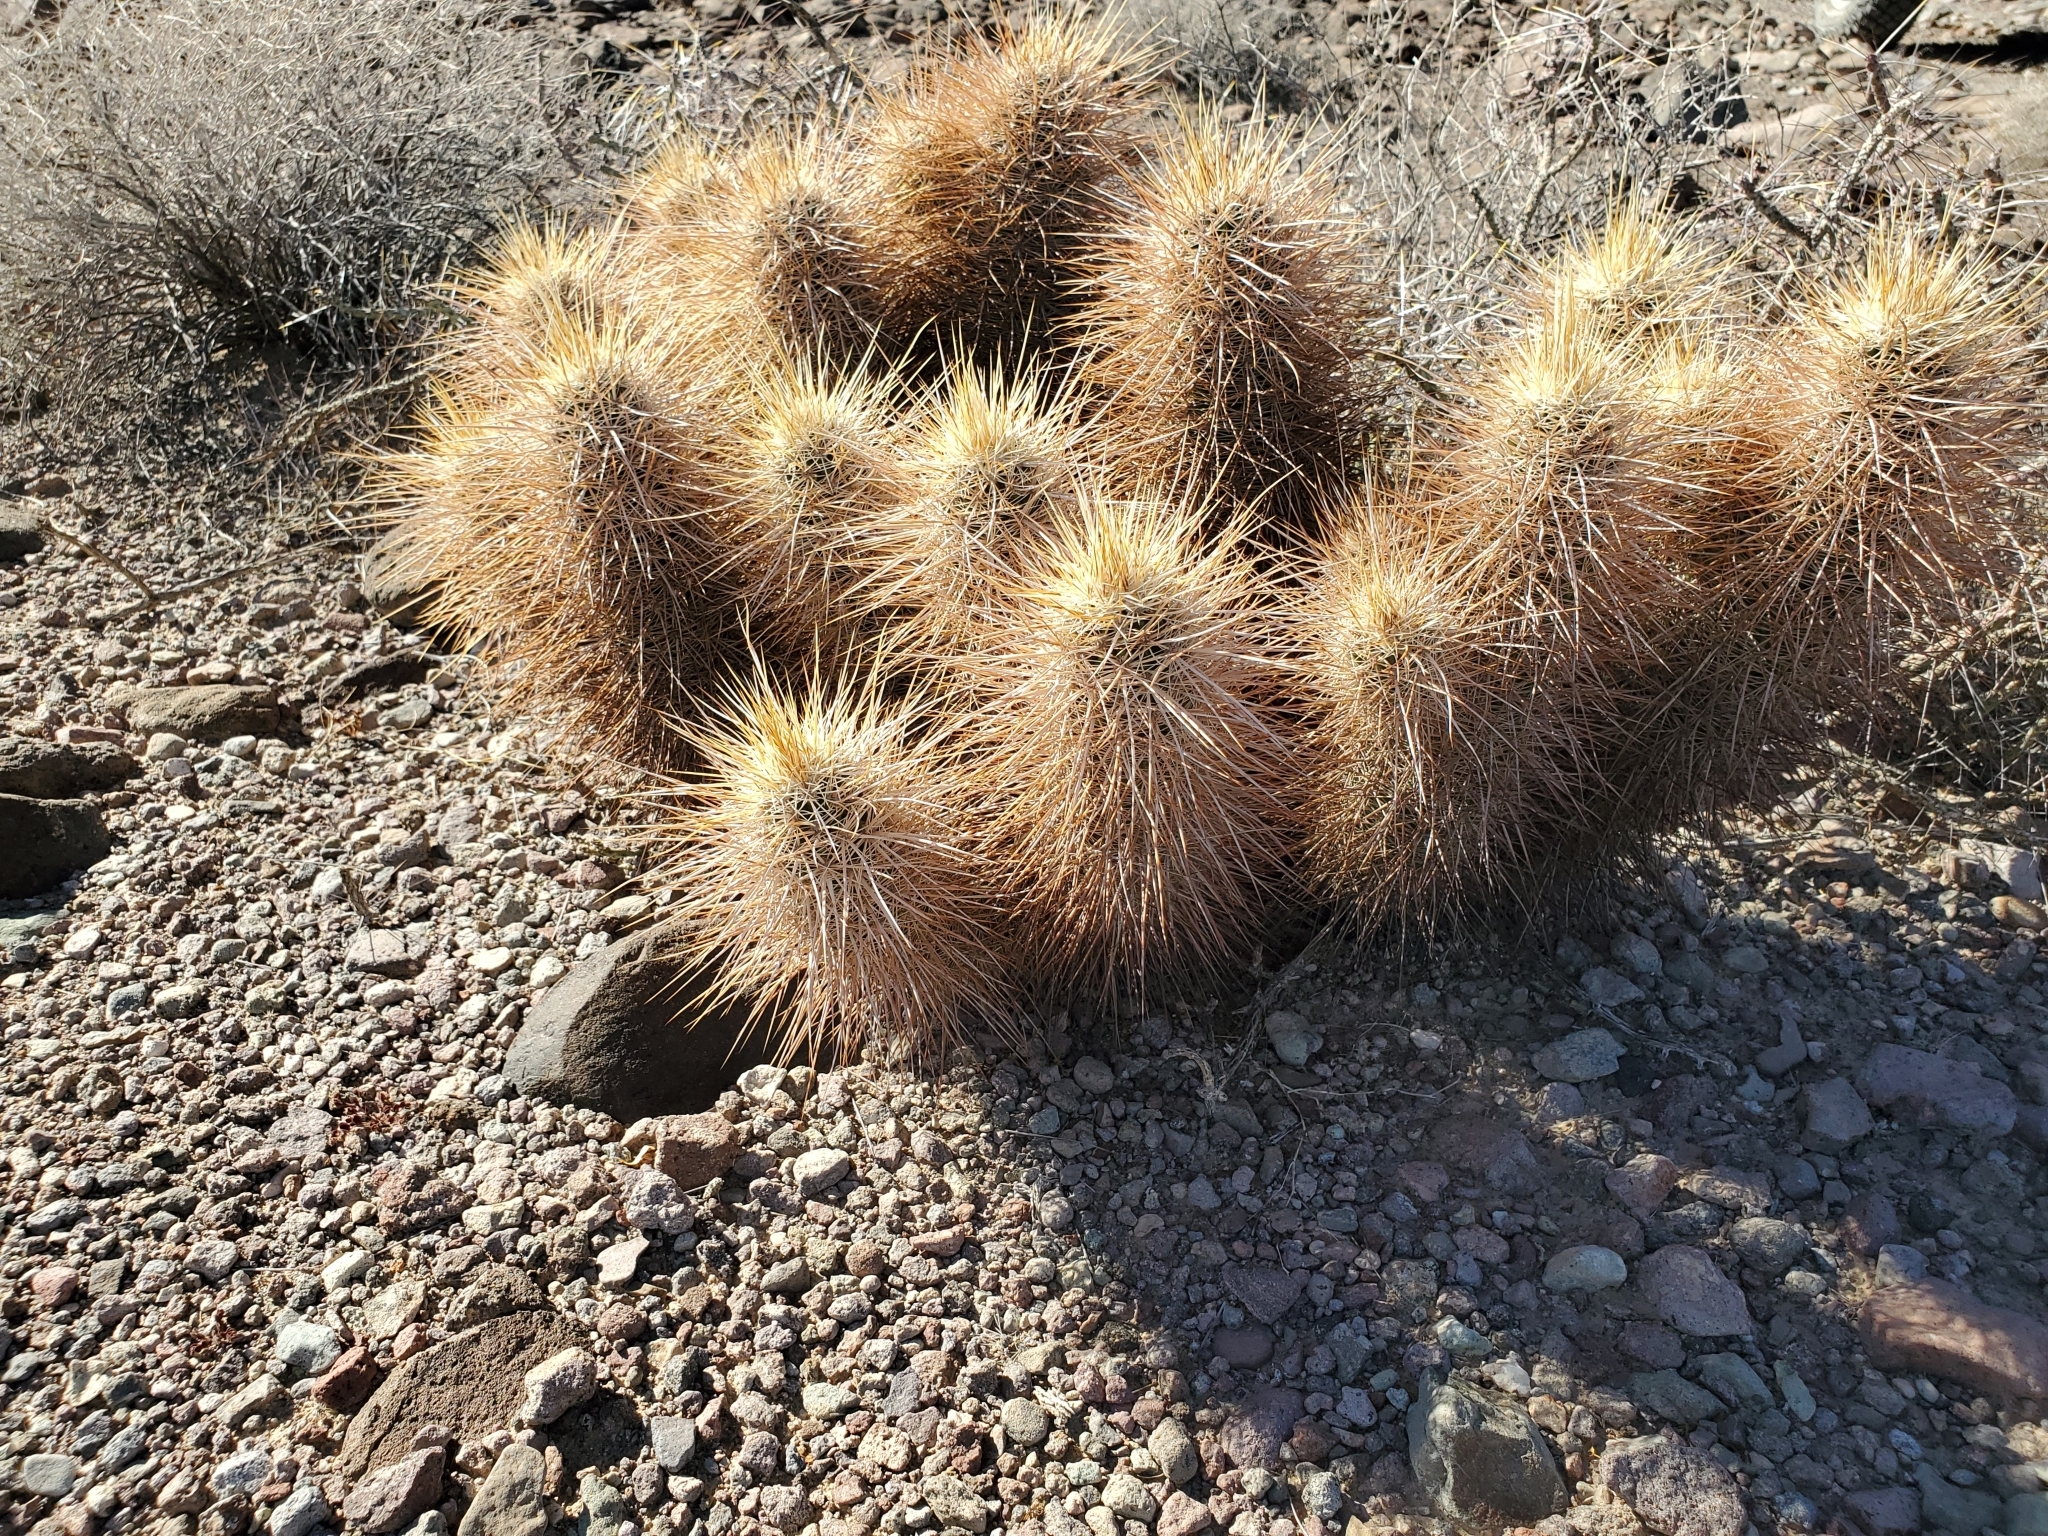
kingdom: Plantae
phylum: Tracheophyta
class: Magnoliopsida
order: Caryophyllales
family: Cactaceae
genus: Echinocereus
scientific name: Echinocereus engelmannii
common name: Engelmann's hedgehog cactus
